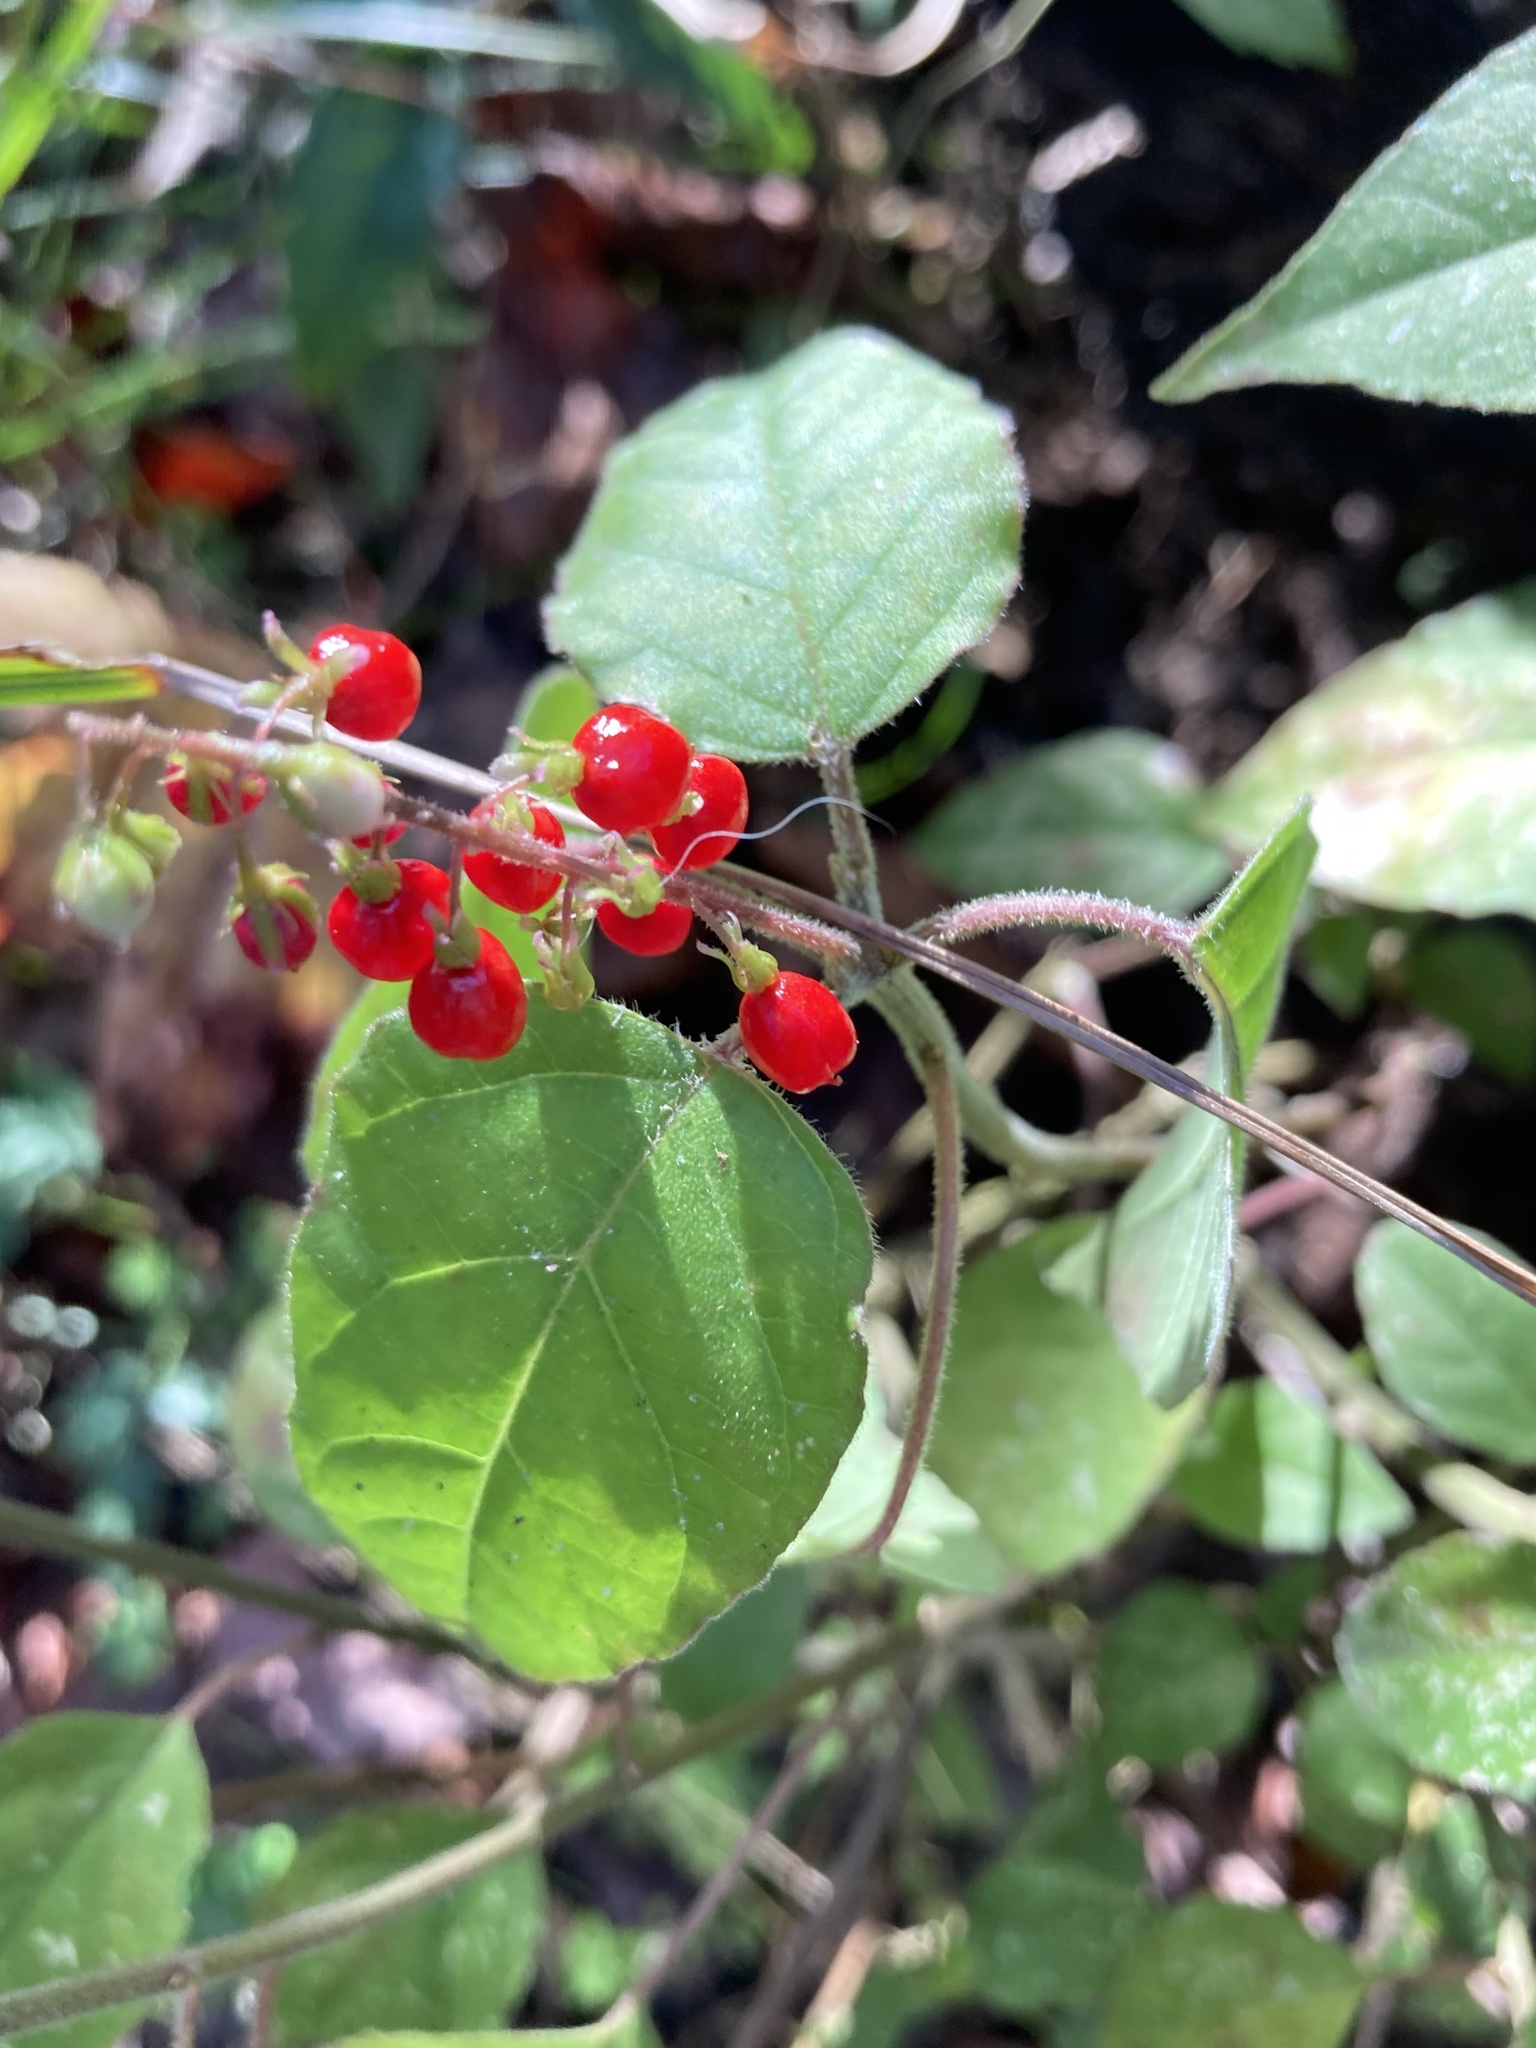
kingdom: Plantae
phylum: Tracheophyta
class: Magnoliopsida
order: Caryophyllales
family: Phytolaccaceae
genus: Rivina
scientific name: Rivina humilis
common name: Rougeplant
